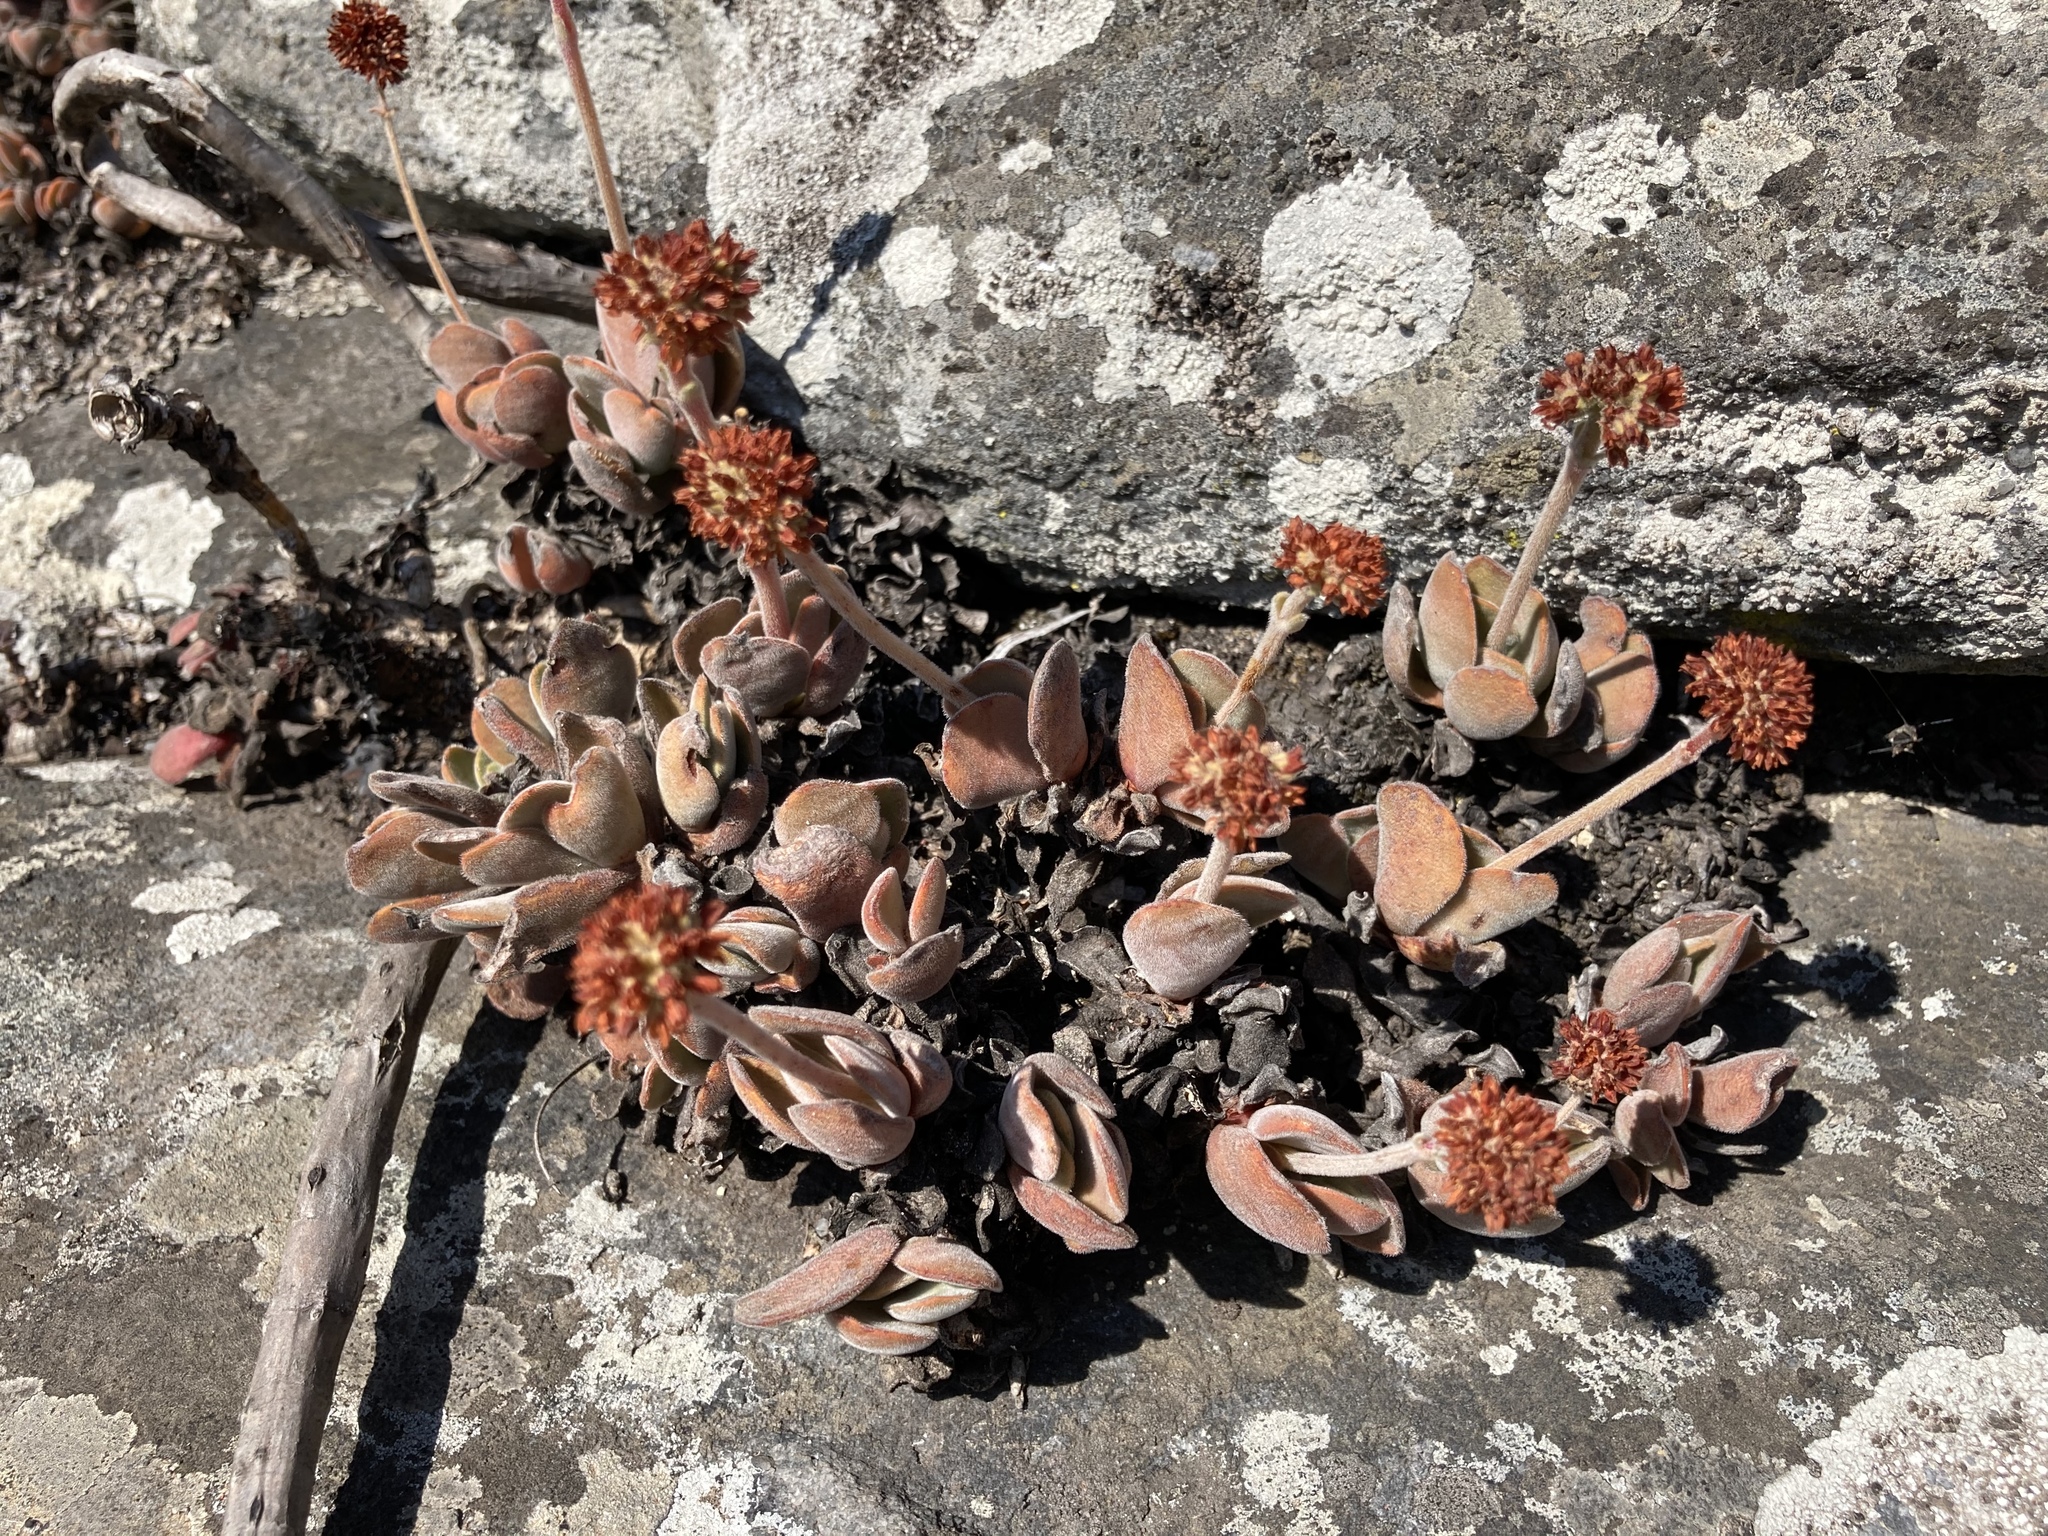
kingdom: Plantae
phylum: Tracheophyta
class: Magnoliopsida
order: Saxifragales
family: Crassulaceae
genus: Crassula
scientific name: Crassula globularioides
